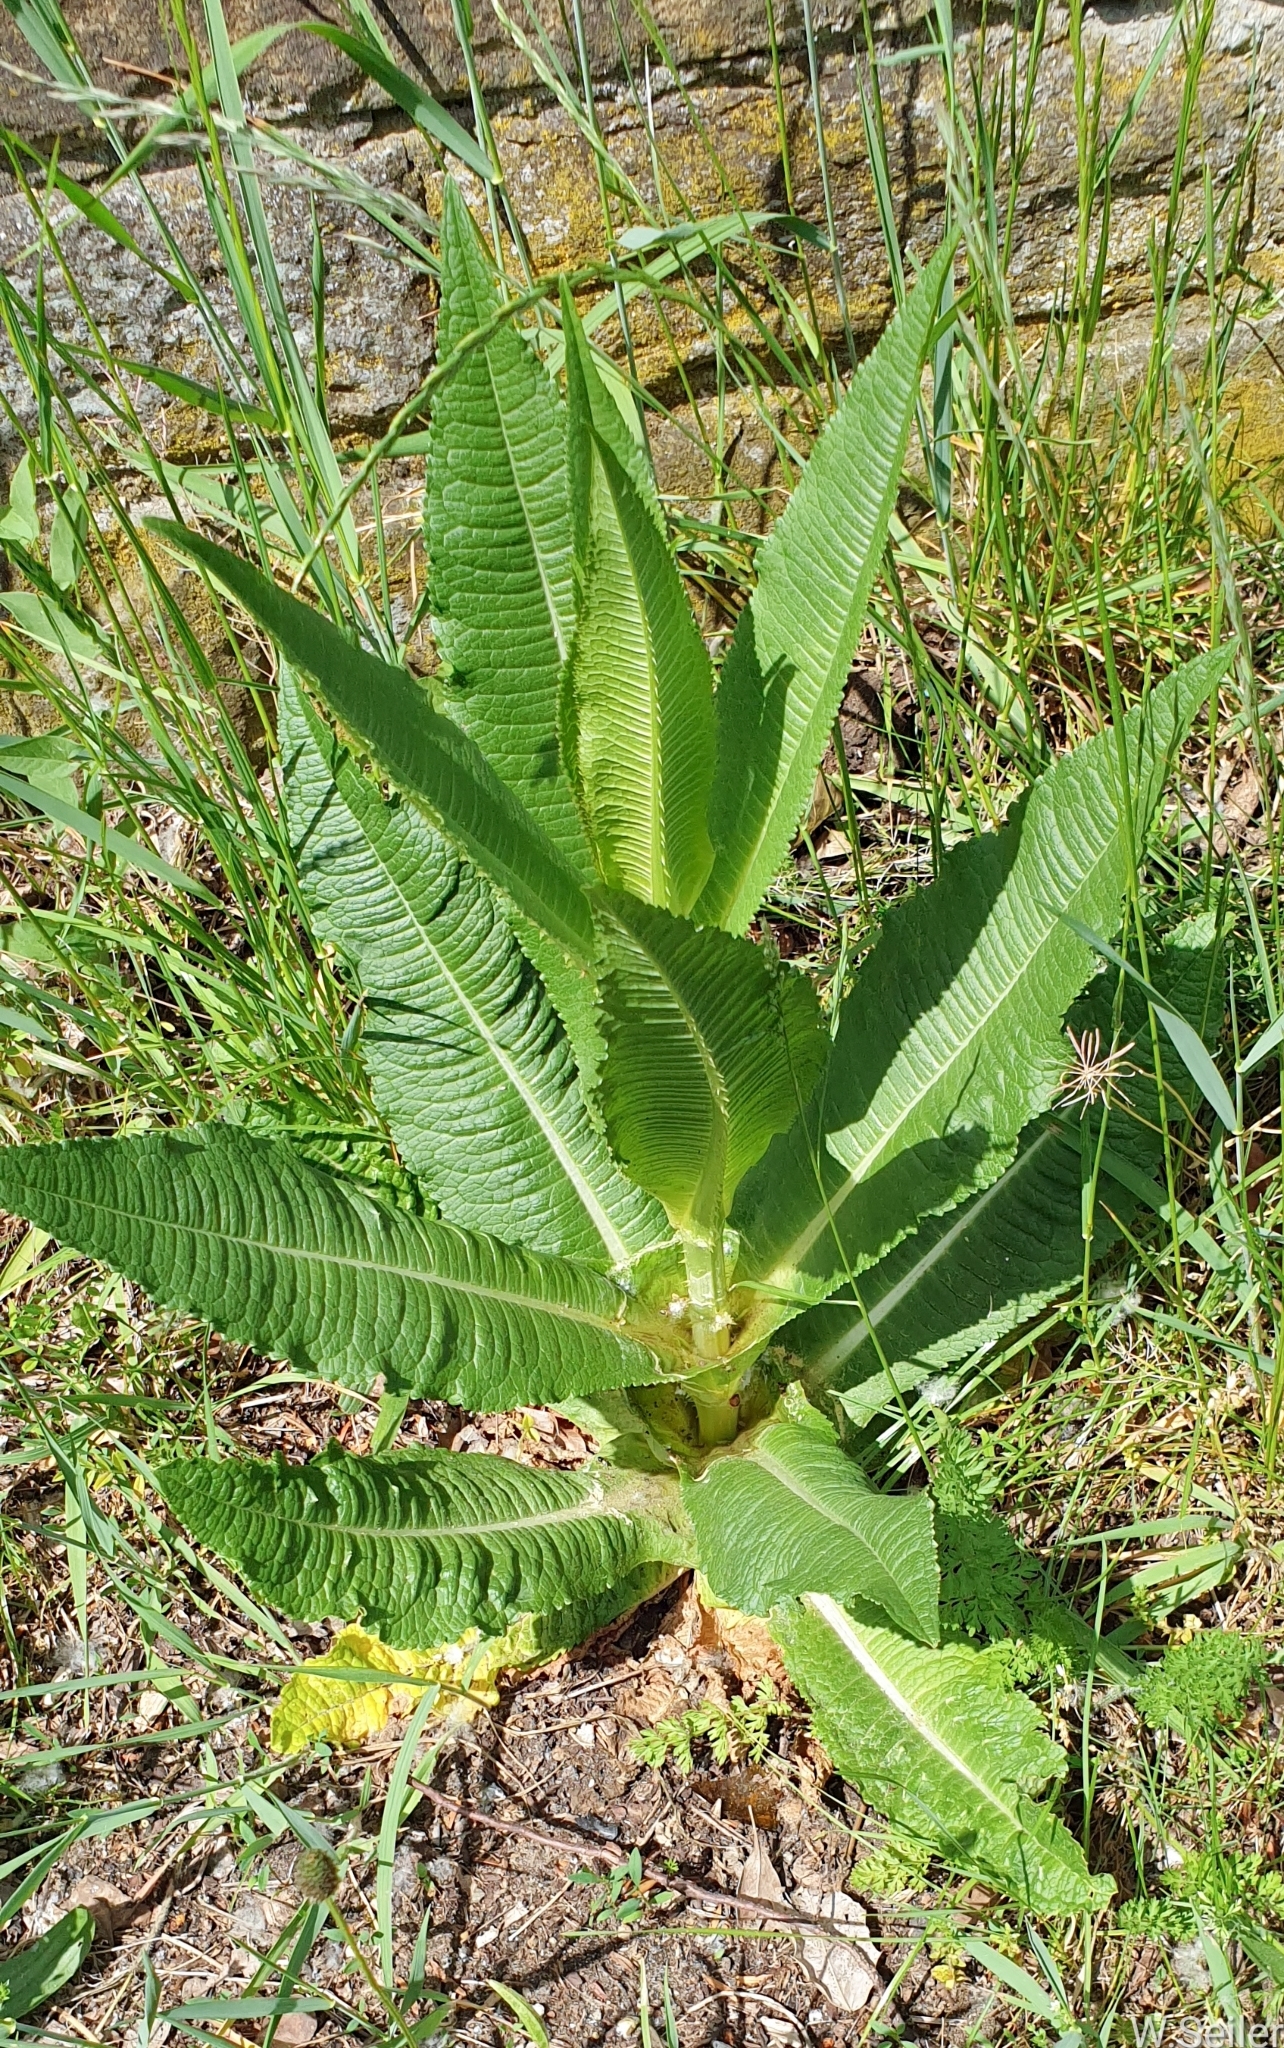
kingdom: Plantae
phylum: Tracheophyta
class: Magnoliopsida
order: Dipsacales
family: Caprifoliaceae
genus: Dipsacus
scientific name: Dipsacus fullonum
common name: Teasel
